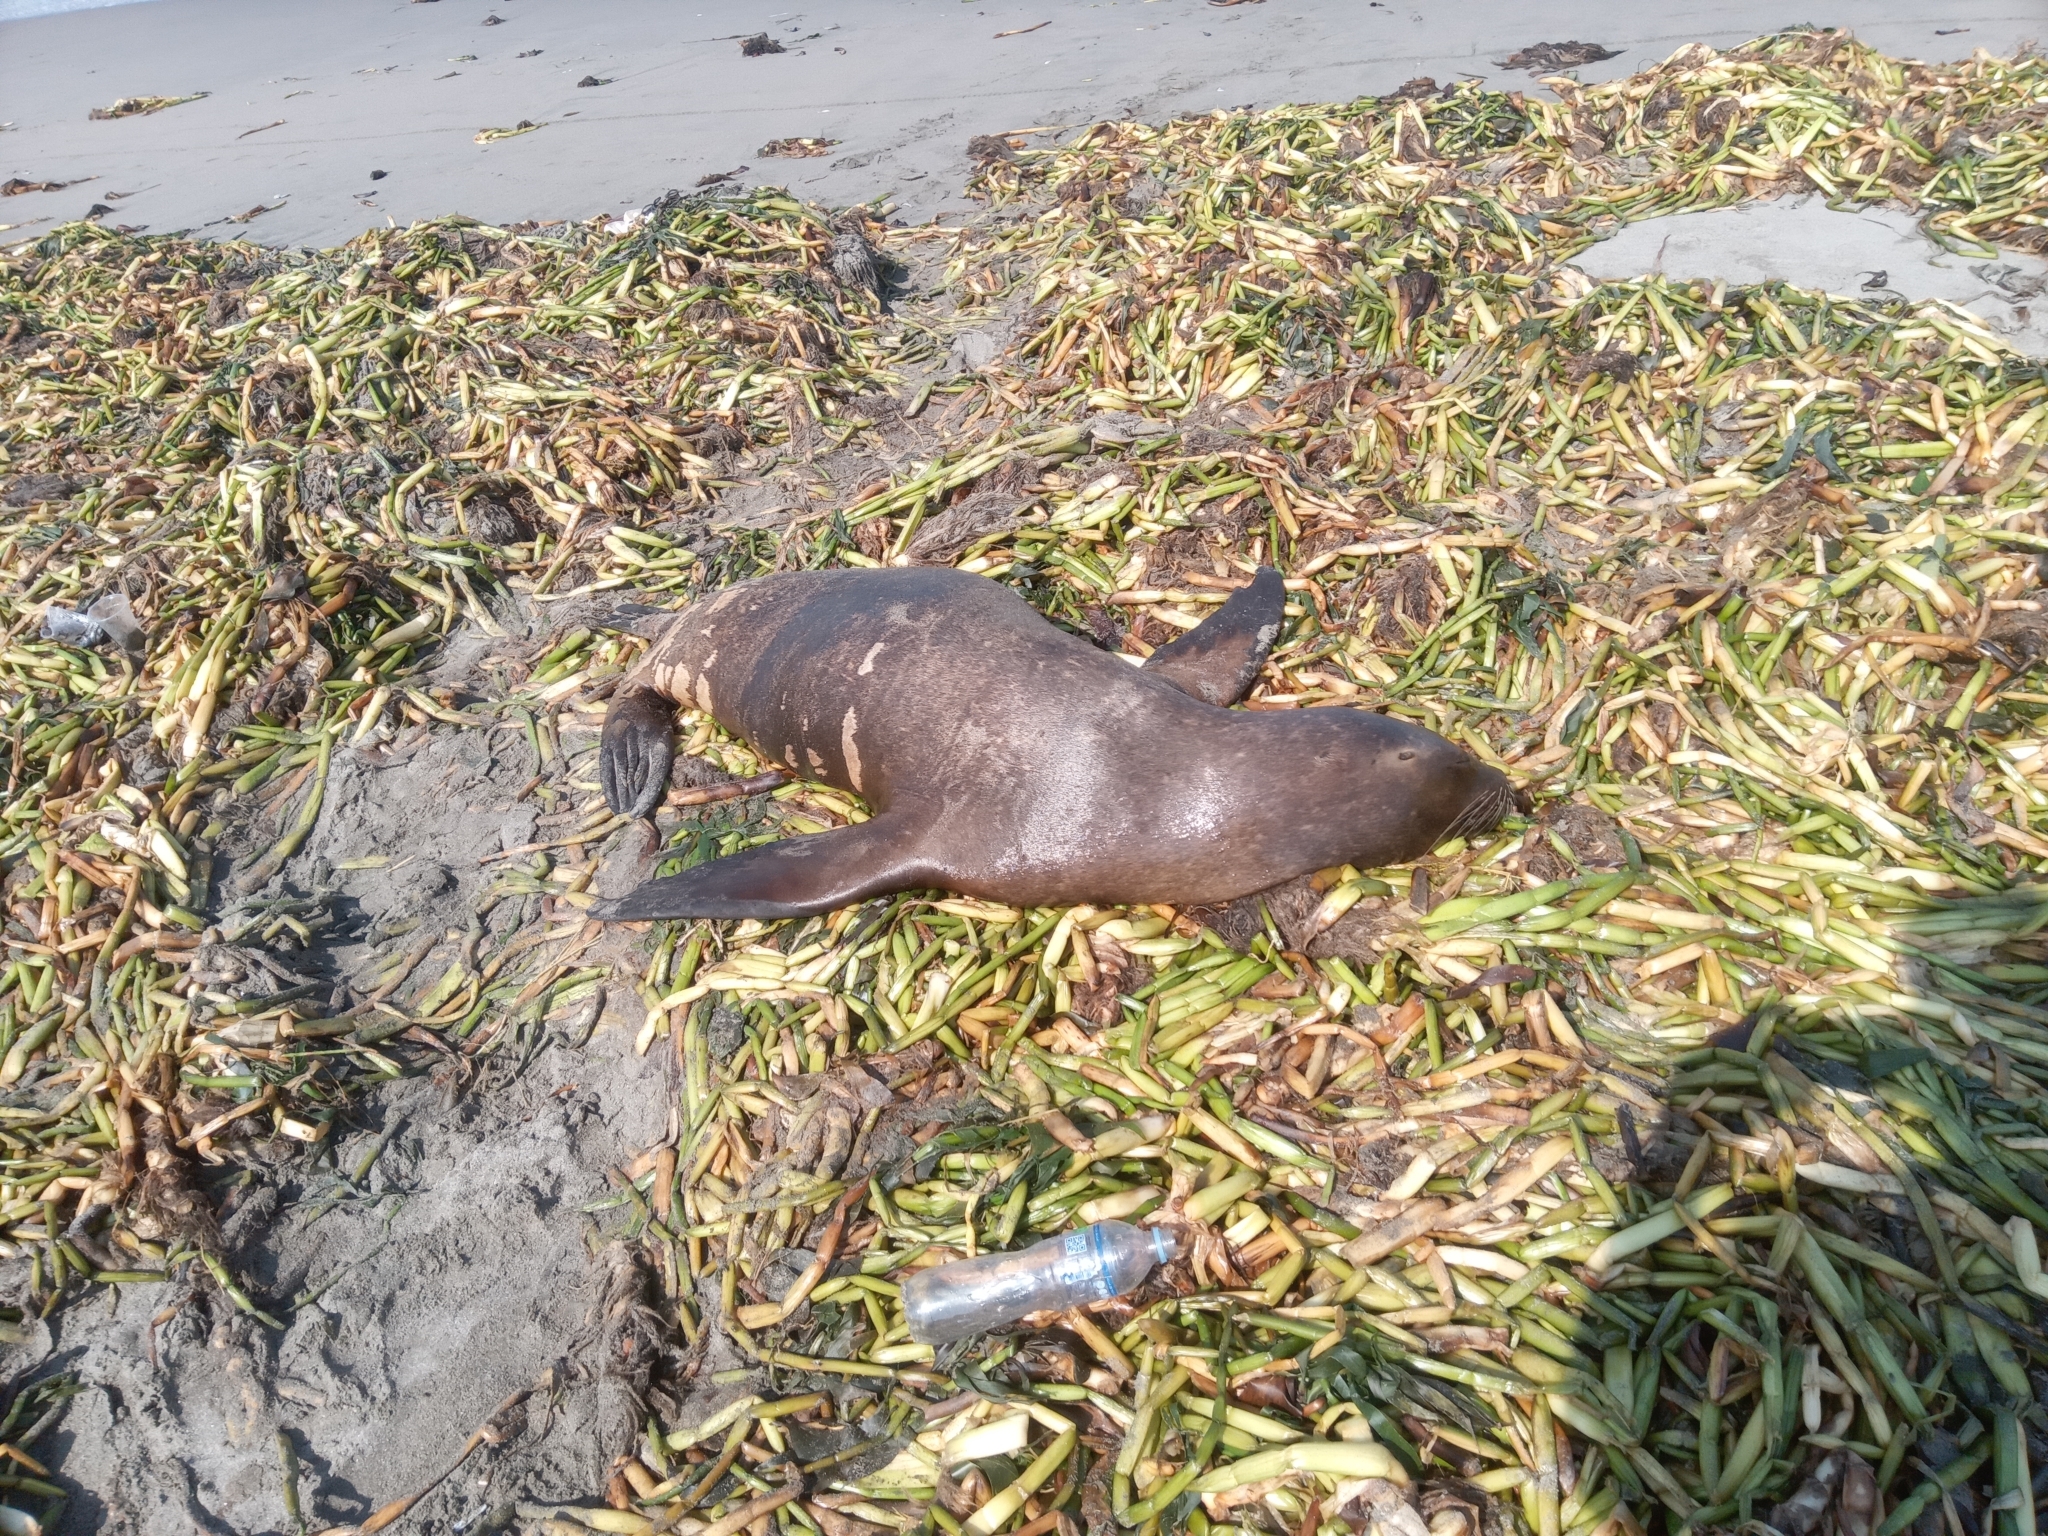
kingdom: Animalia
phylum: Chordata
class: Mammalia
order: Carnivora
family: Otariidae
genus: Otaria
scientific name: Otaria byronia
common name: South american sea lion
